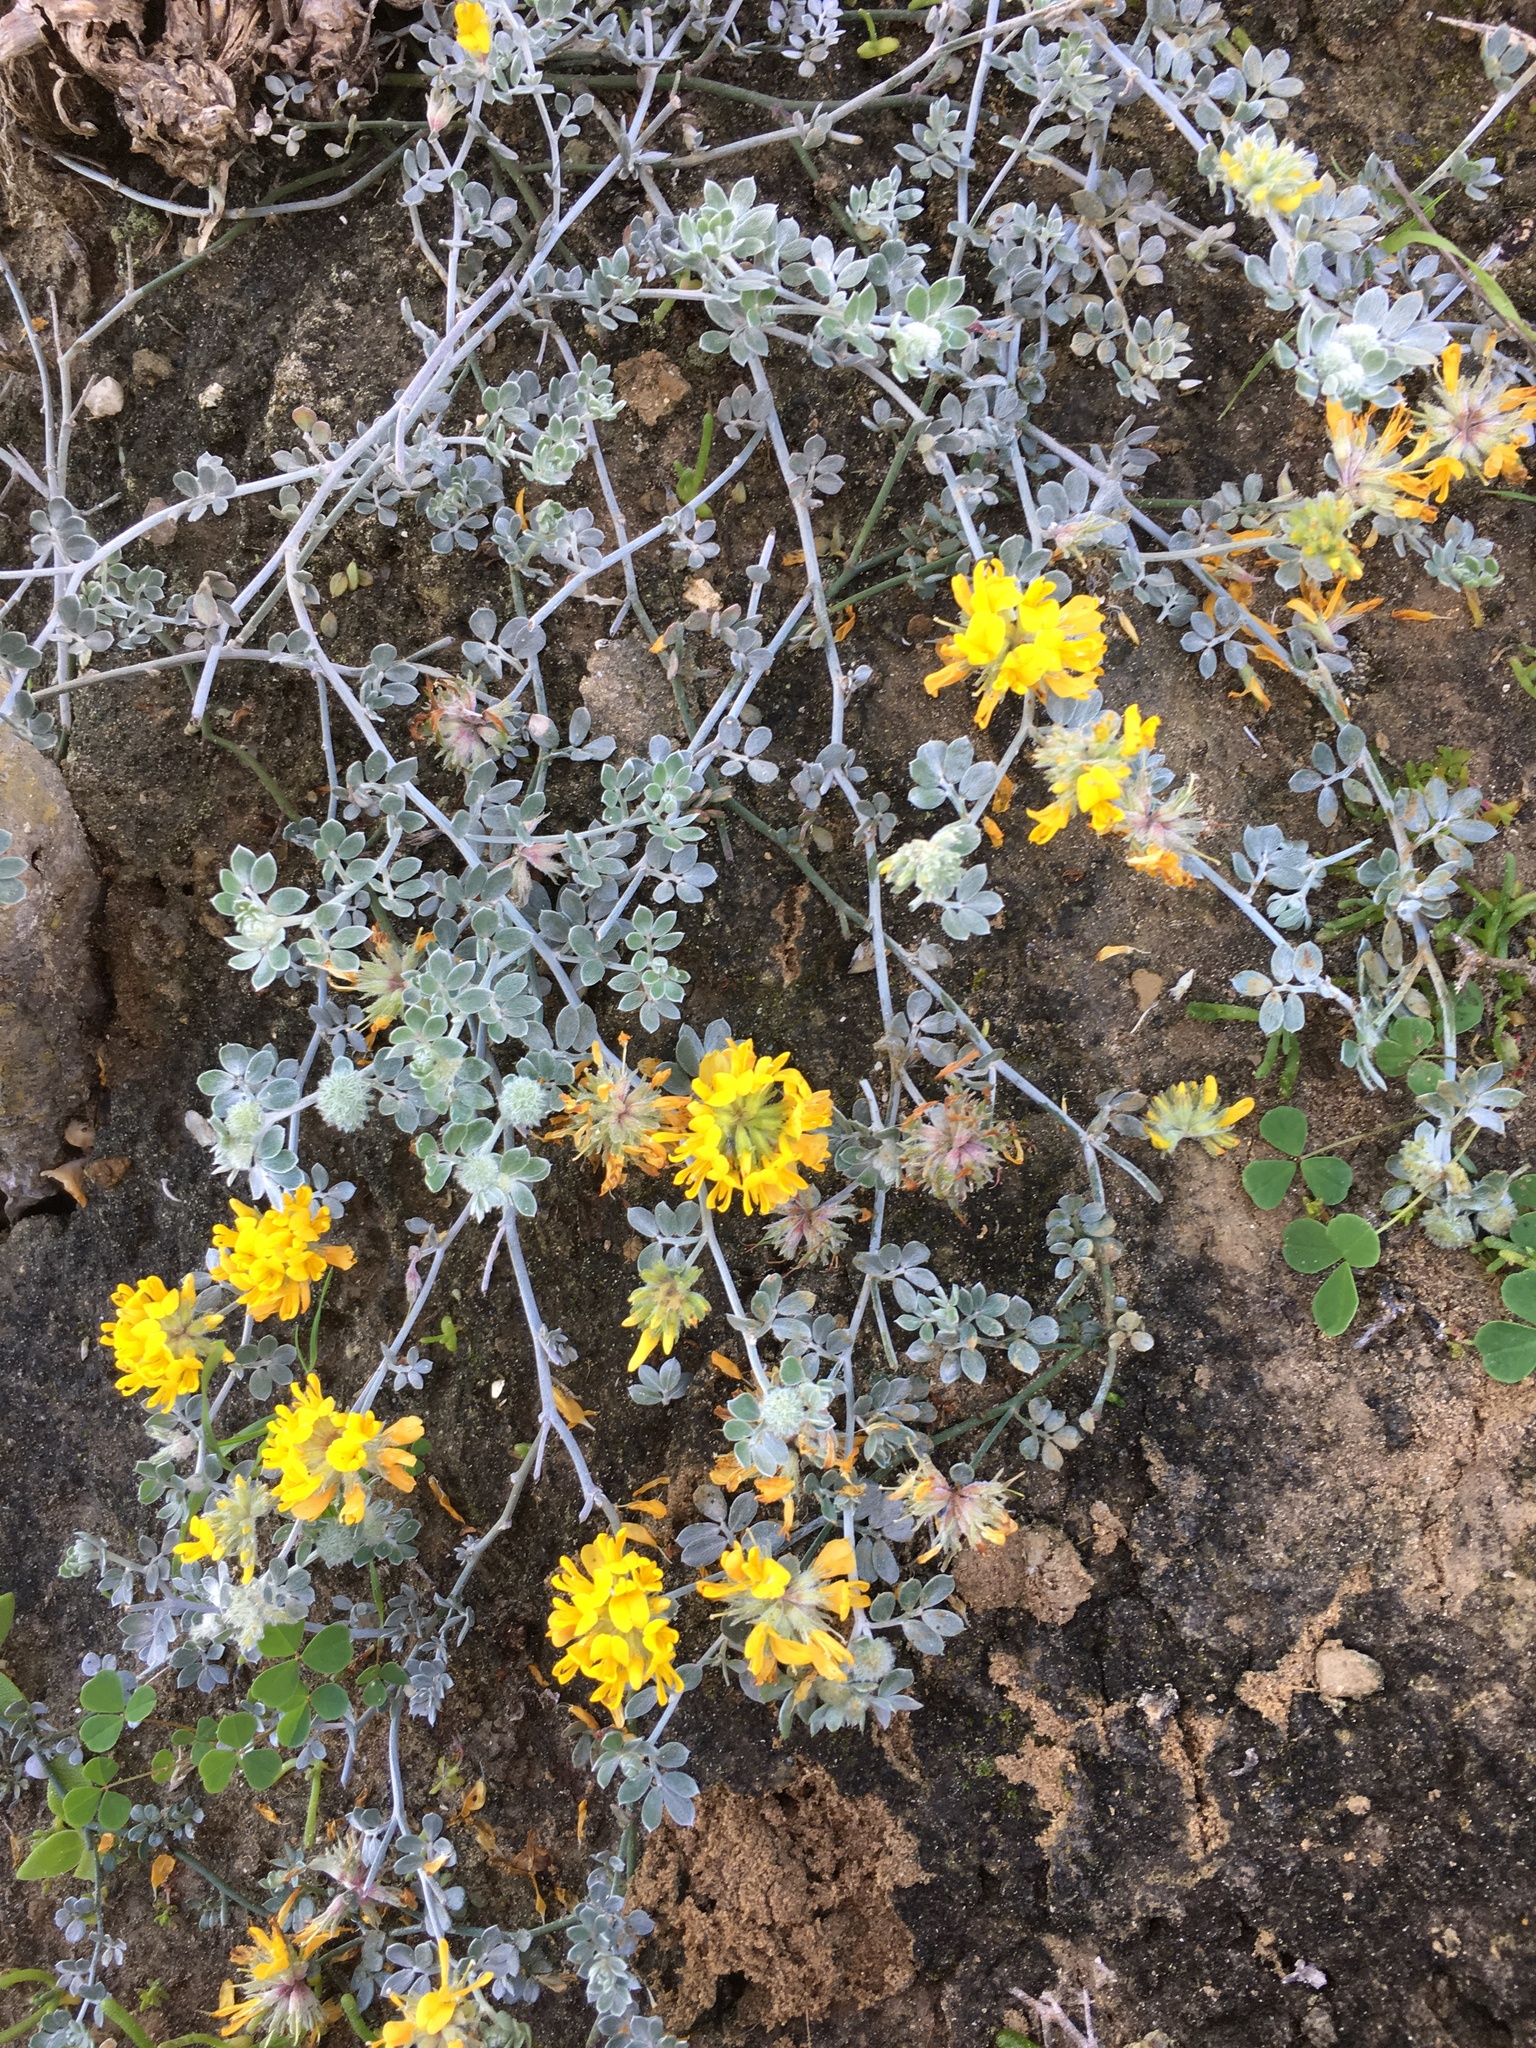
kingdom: Plantae
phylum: Tracheophyta
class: Magnoliopsida
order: Fabales
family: Fabaceae
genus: Acmispon
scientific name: Acmispon argophyllus
